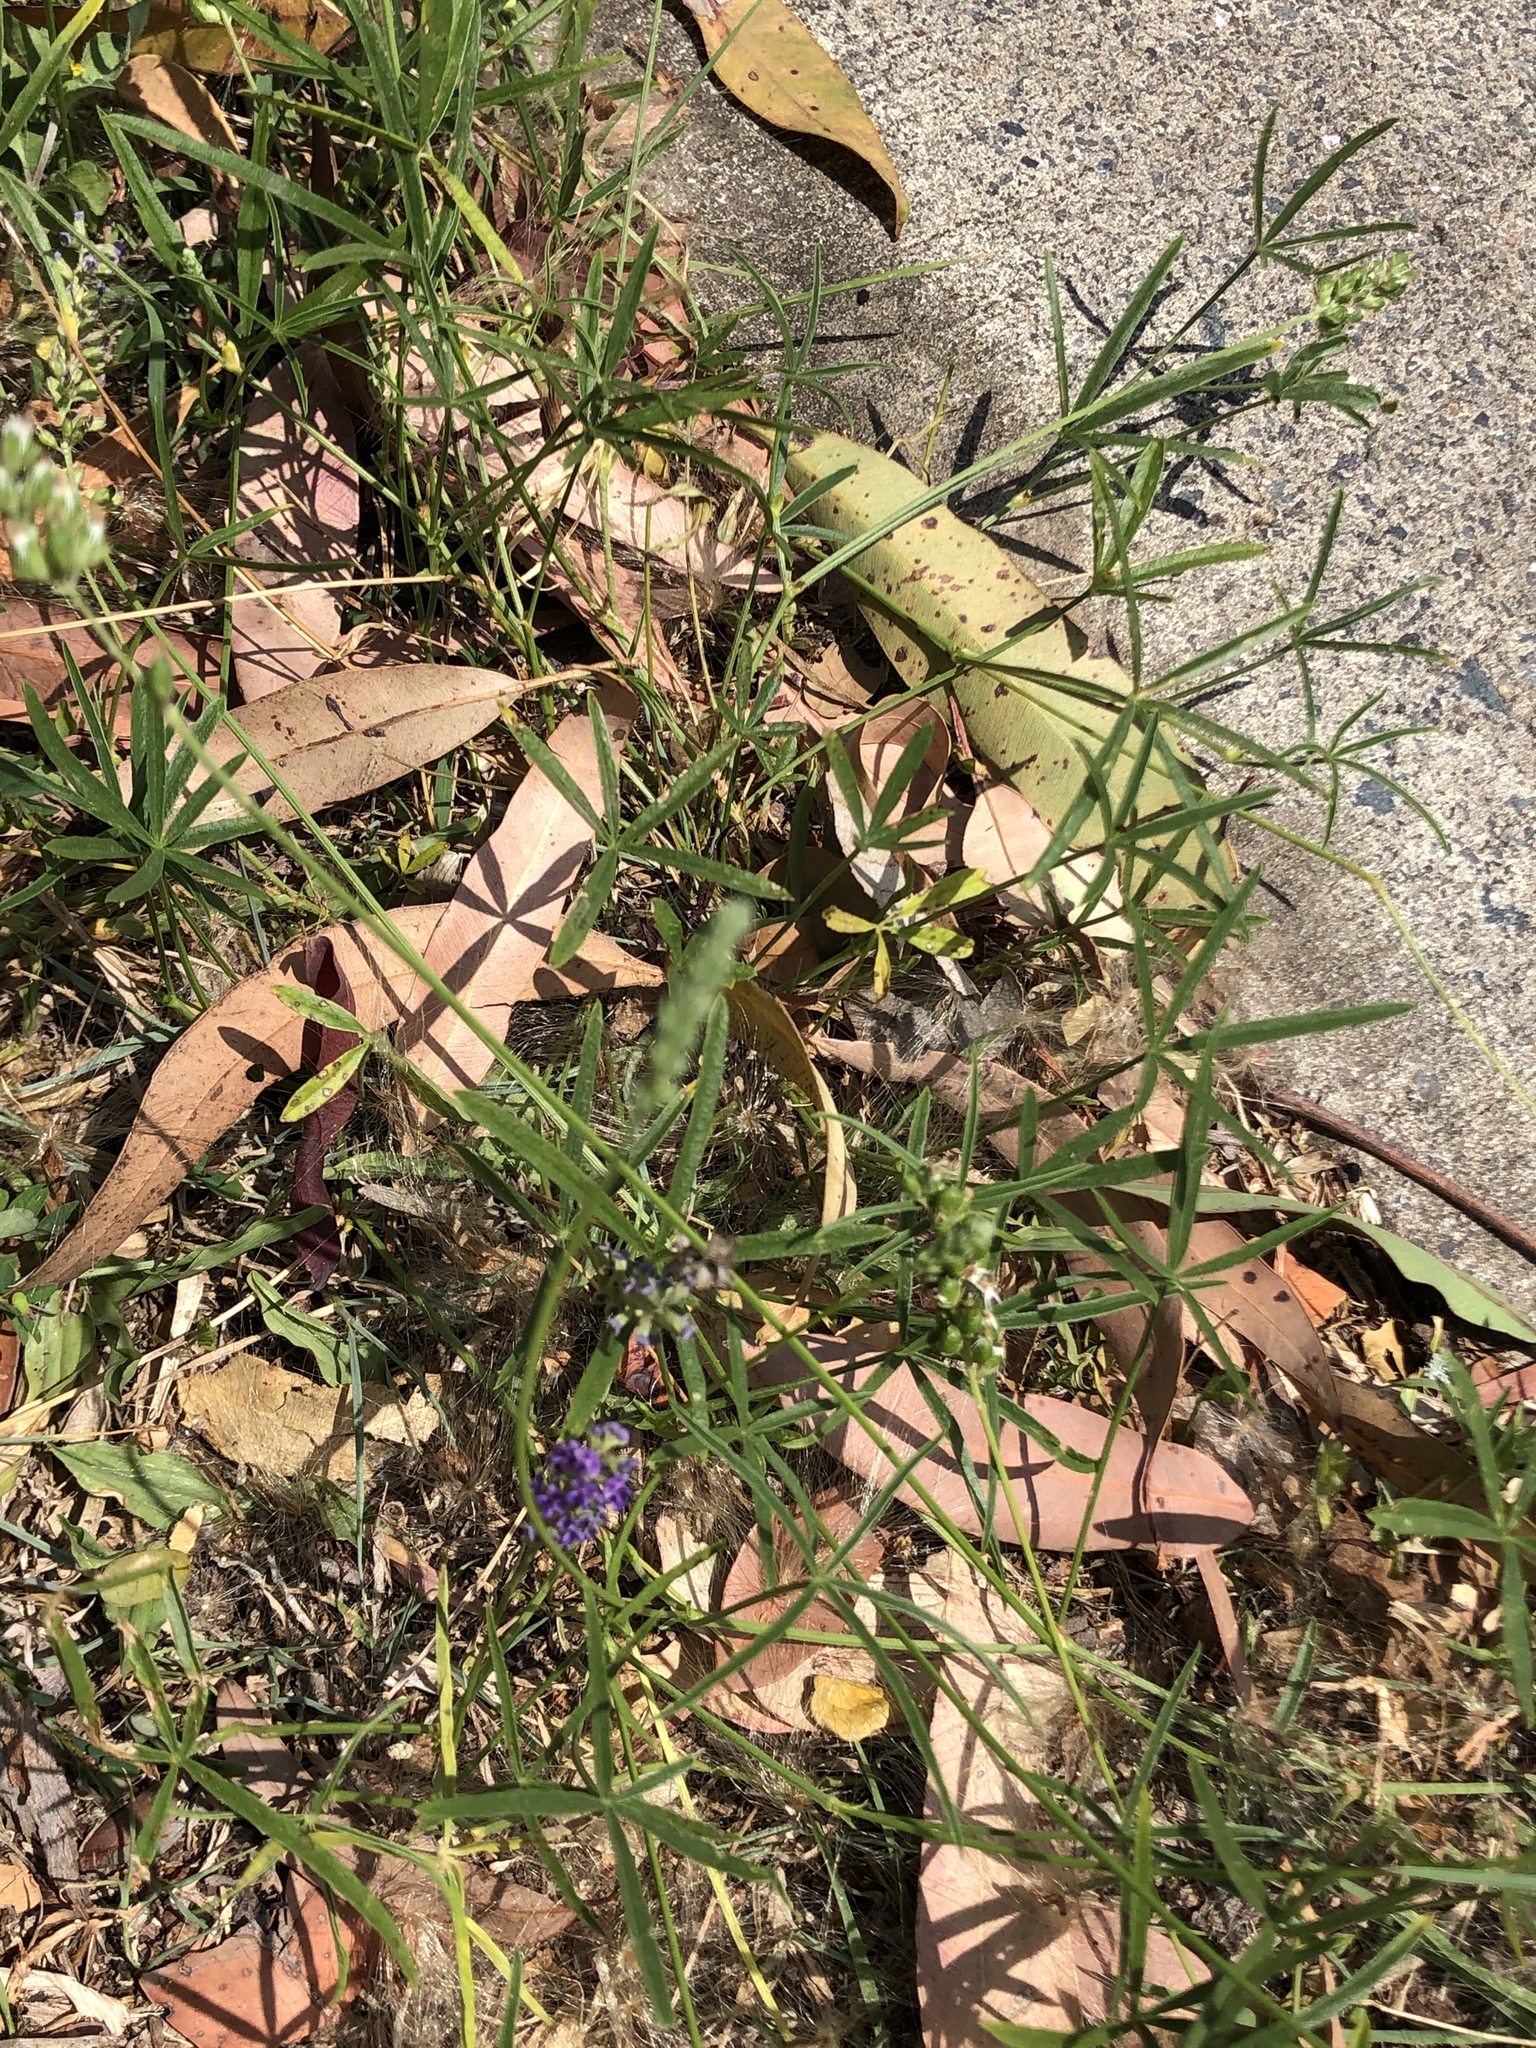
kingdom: Plantae
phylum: Tracheophyta
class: Magnoliopsida
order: Fabales
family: Fabaceae
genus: Cullen
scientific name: Cullen tenax
